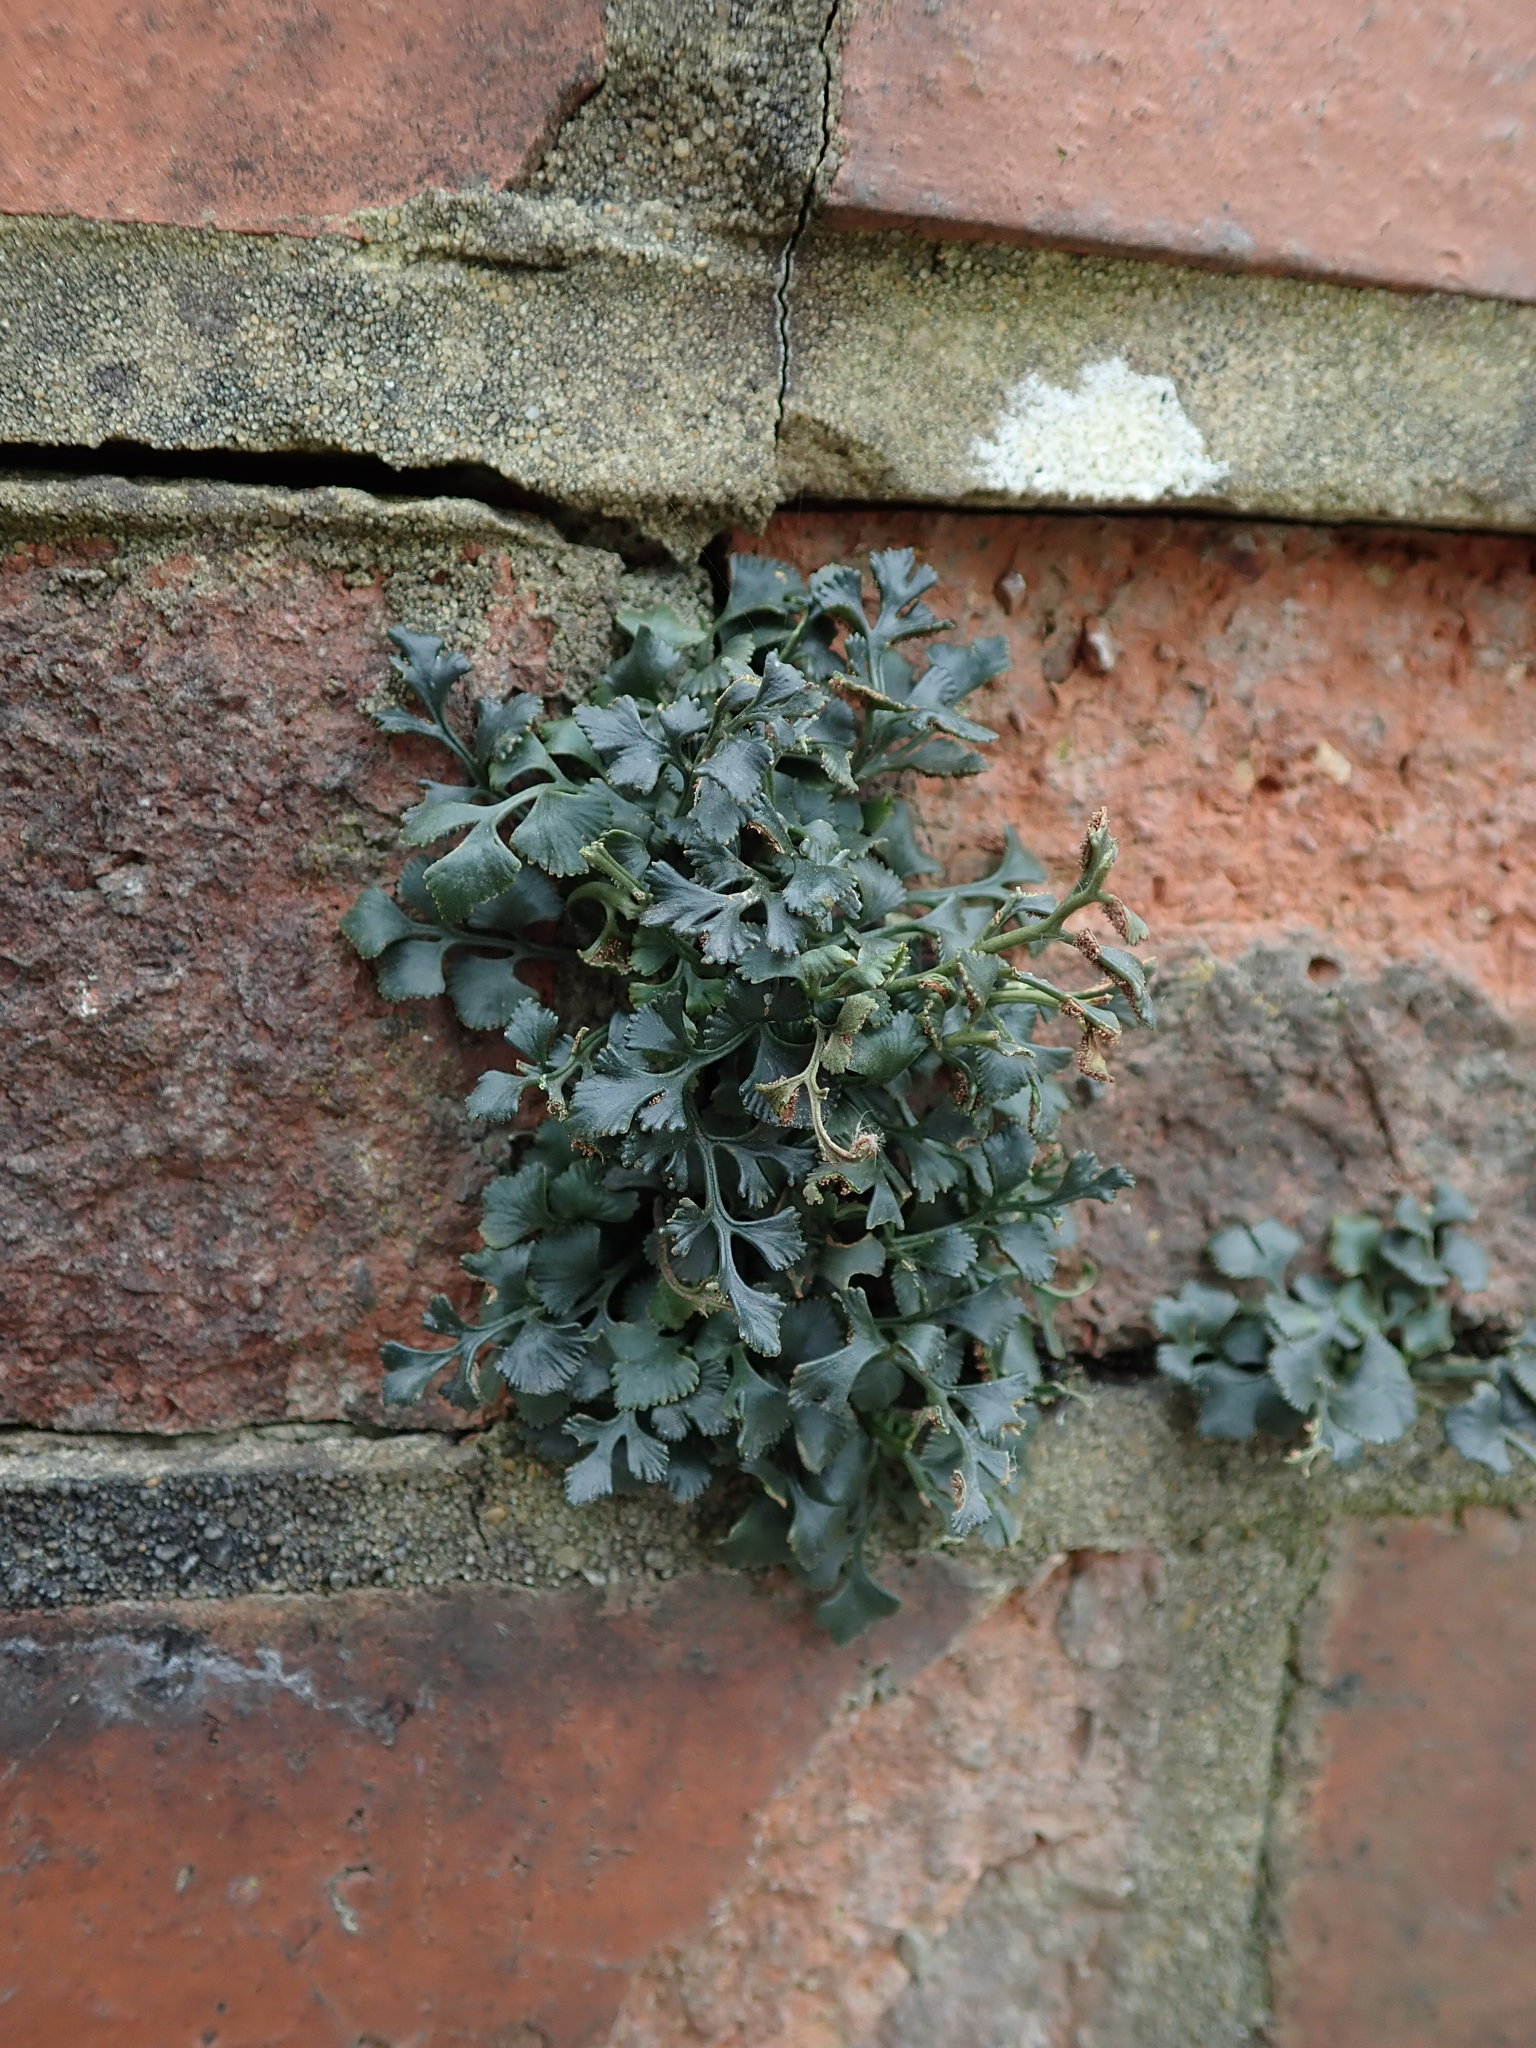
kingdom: Plantae
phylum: Tracheophyta
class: Polypodiopsida
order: Polypodiales
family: Aspleniaceae
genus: Asplenium
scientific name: Asplenium ruta-muraria
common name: Wall-rue
